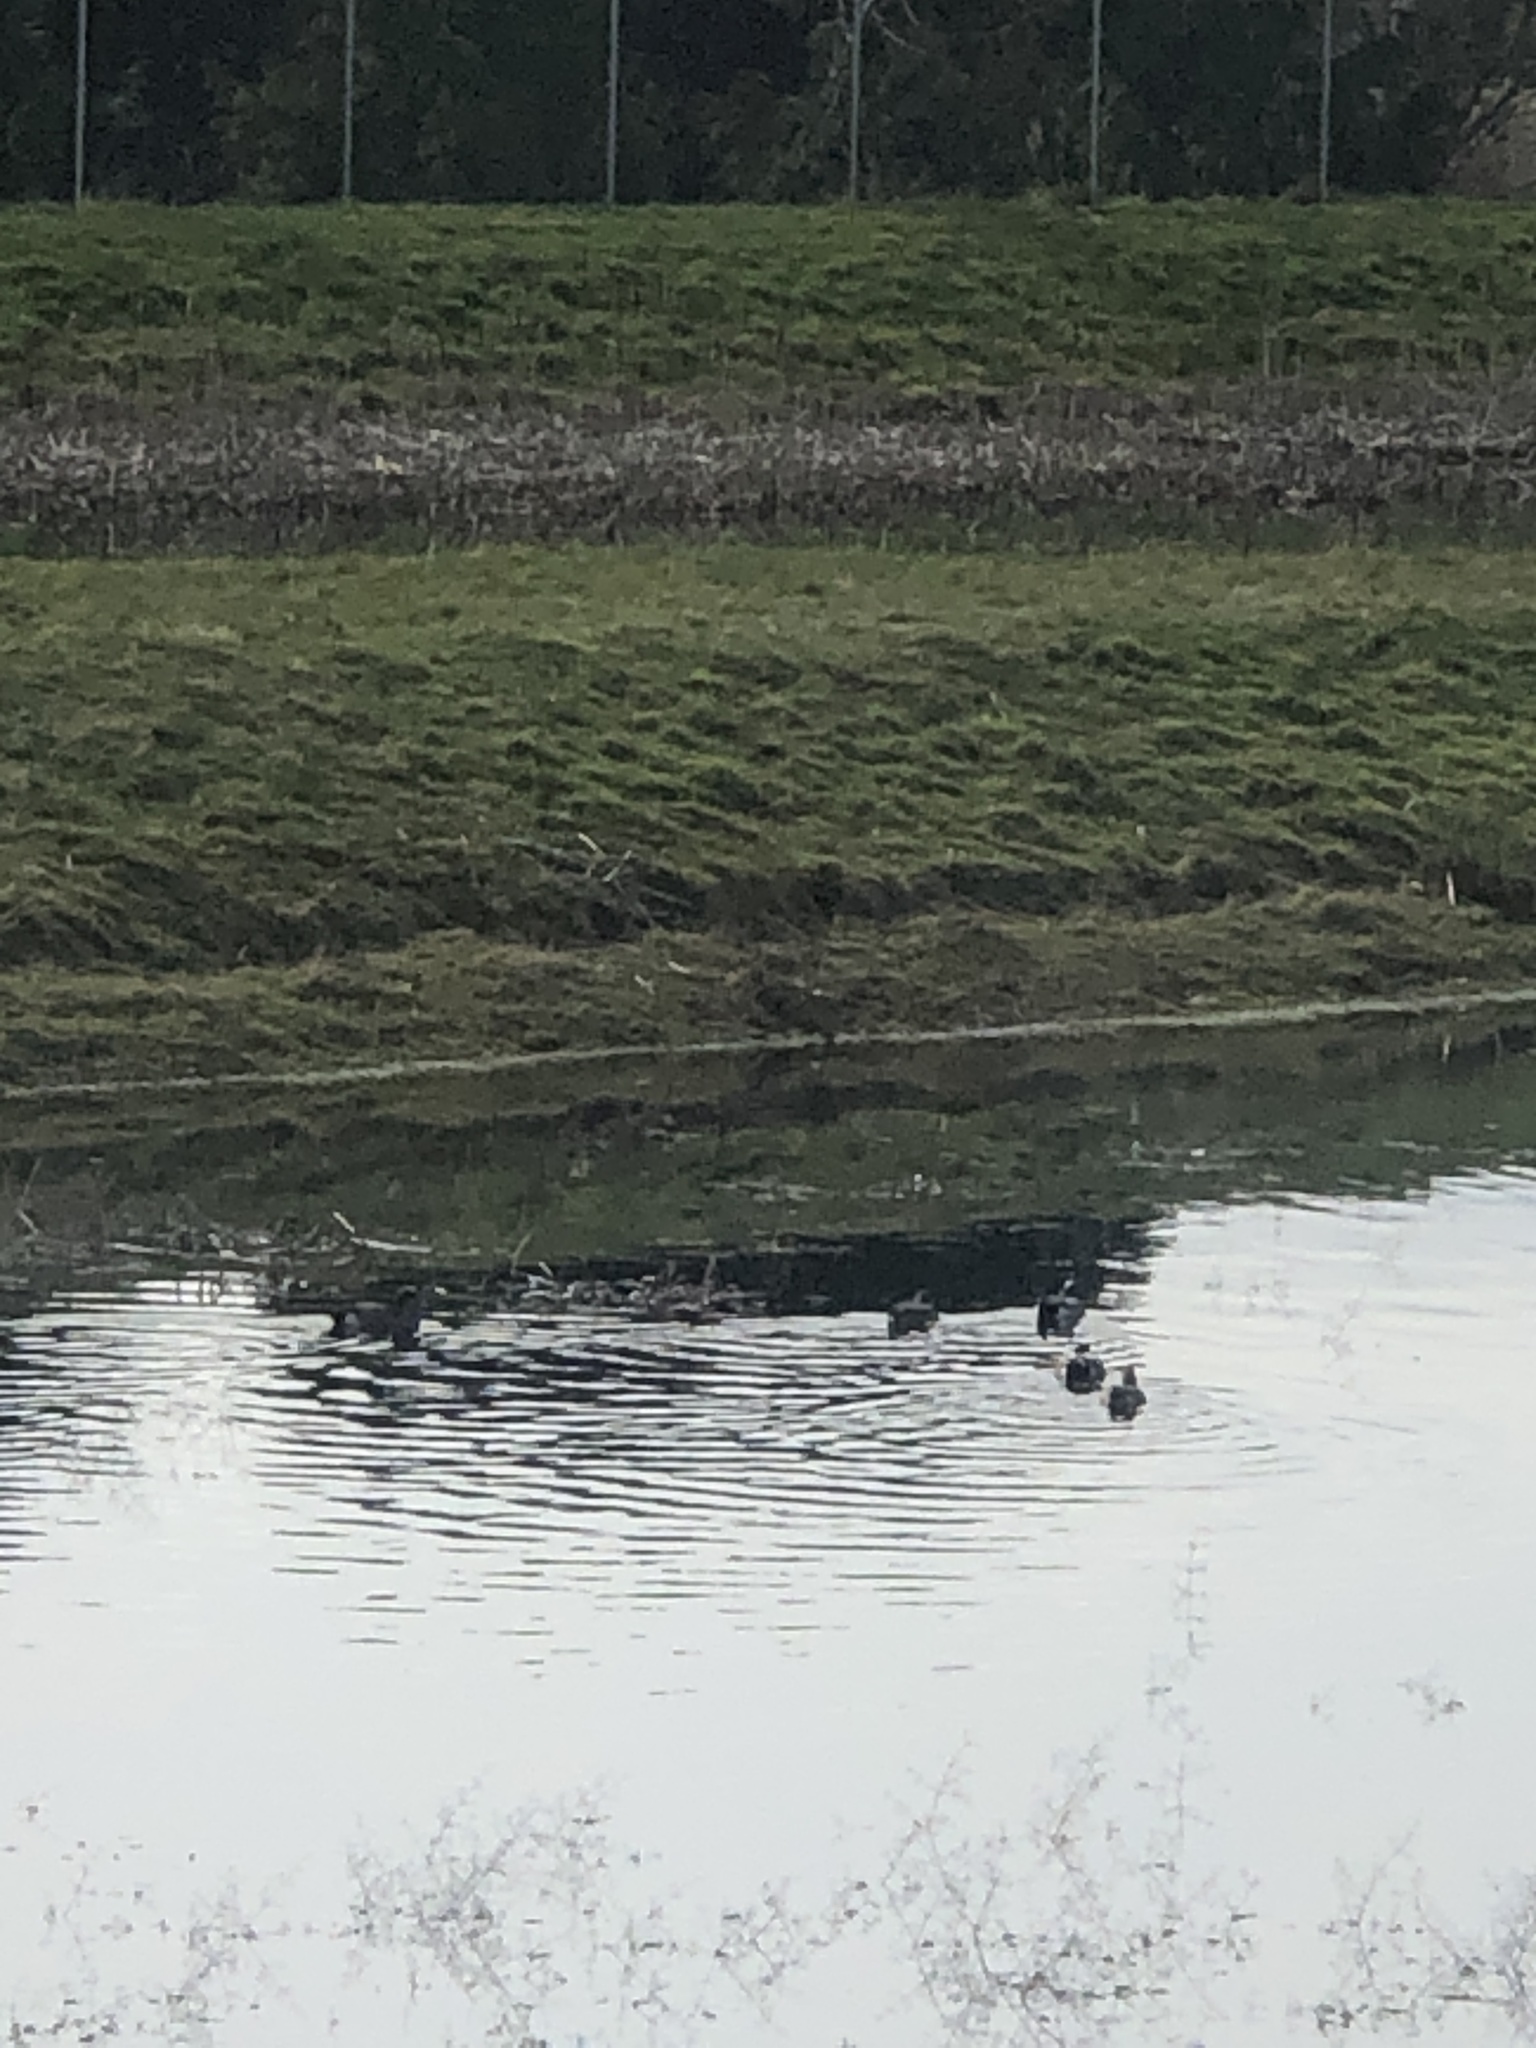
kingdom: Animalia
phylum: Chordata
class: Aves
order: Anseriformes
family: Anatidae
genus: Mareca
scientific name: Mareca americana
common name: American wigeon
